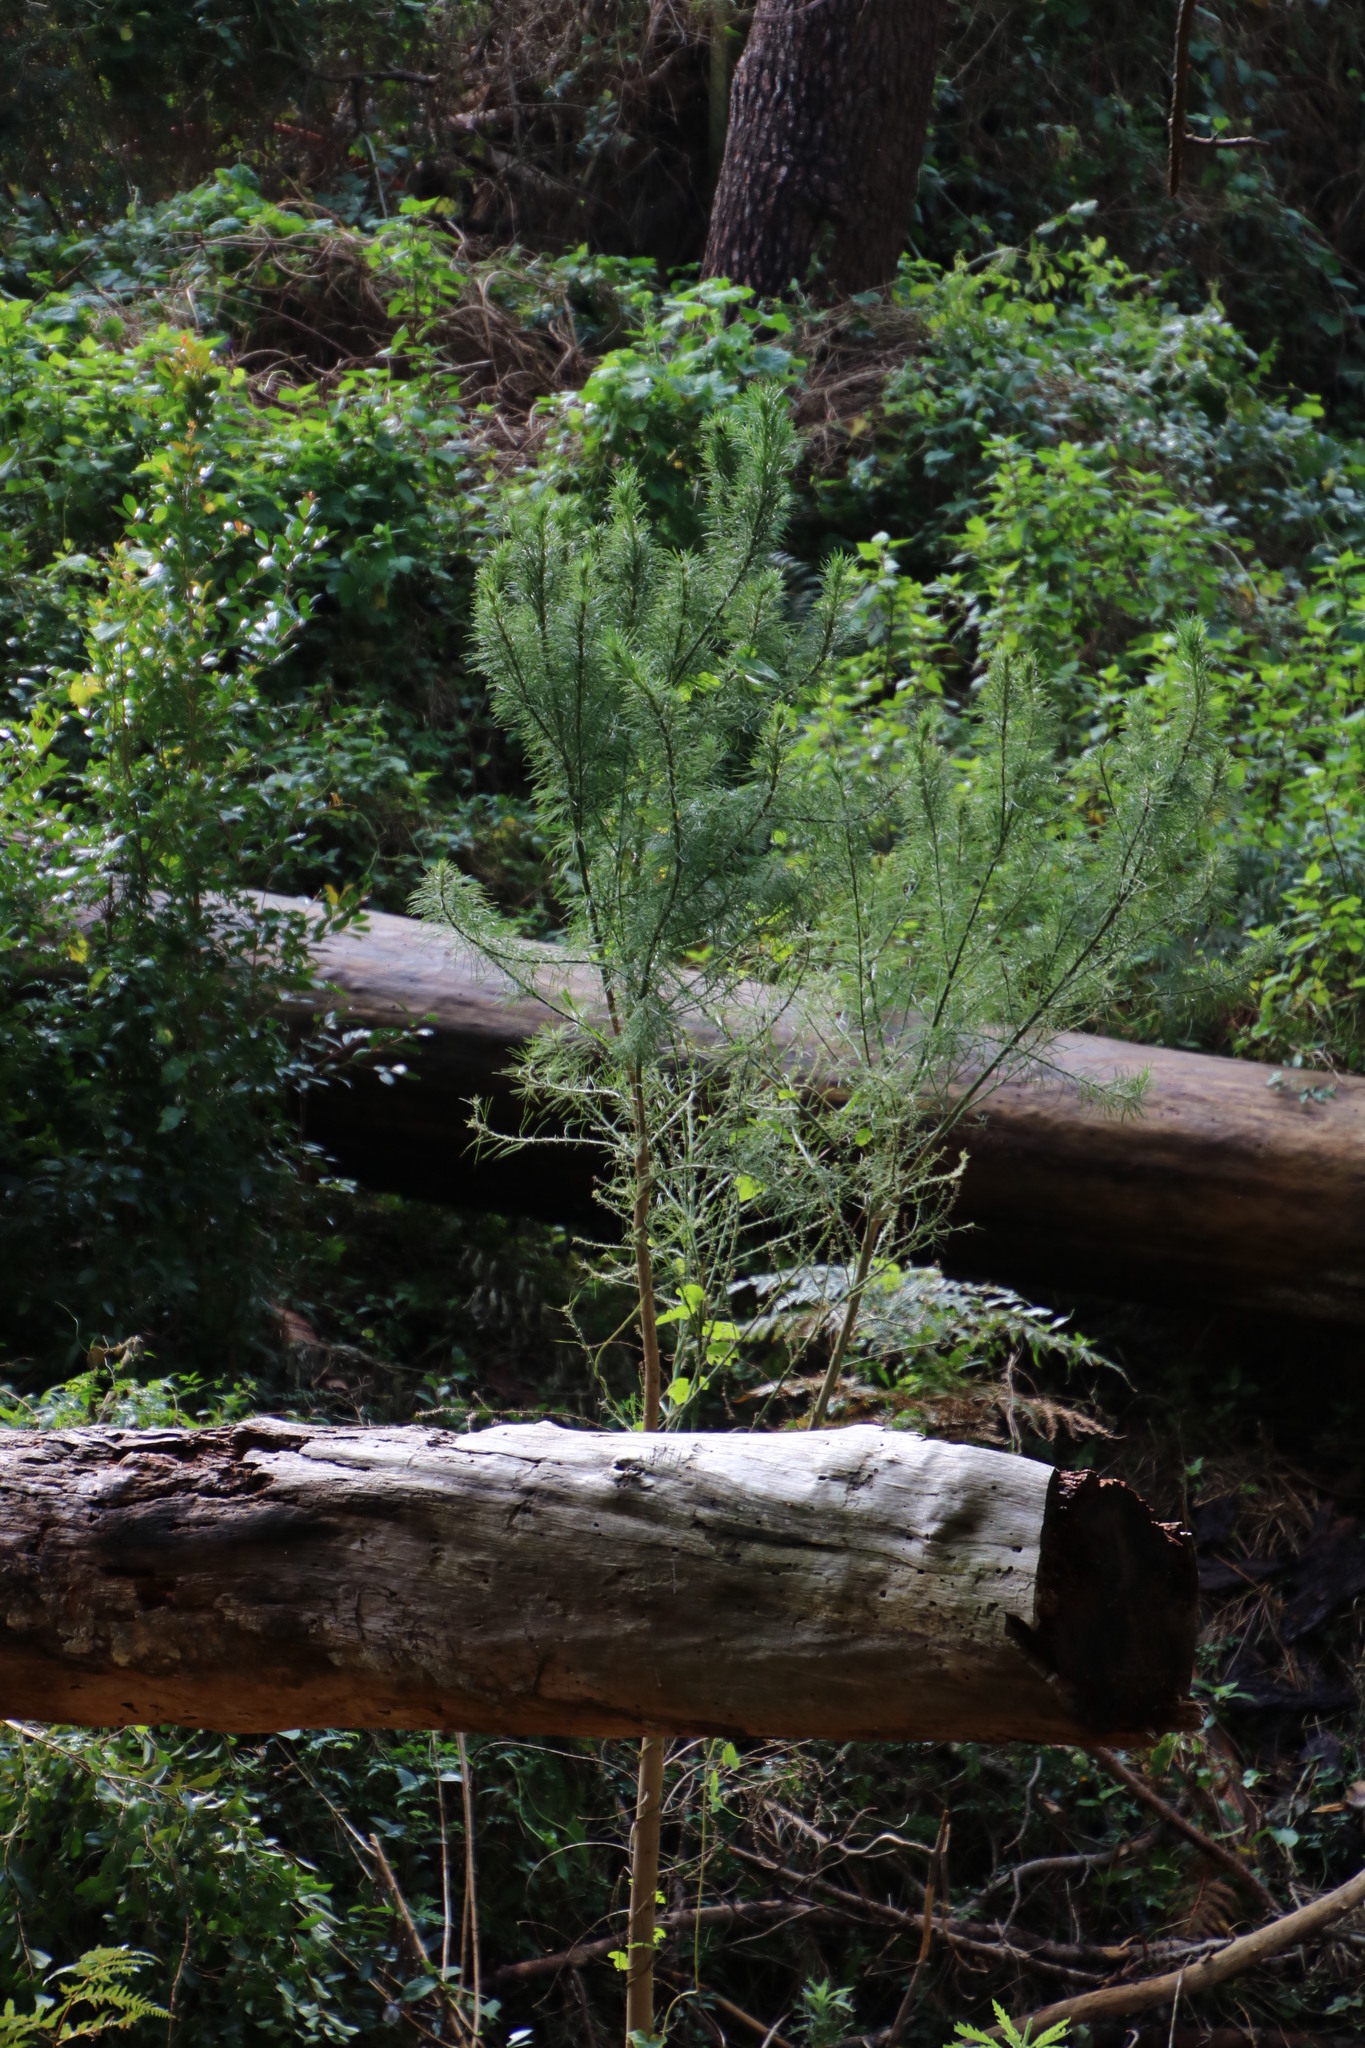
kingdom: Plantae
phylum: Tracheophyta
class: Magnoliopsida
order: Fabales
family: Fabaceae
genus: Psoralea
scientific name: Psoralea pinnata
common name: African scurfpea
